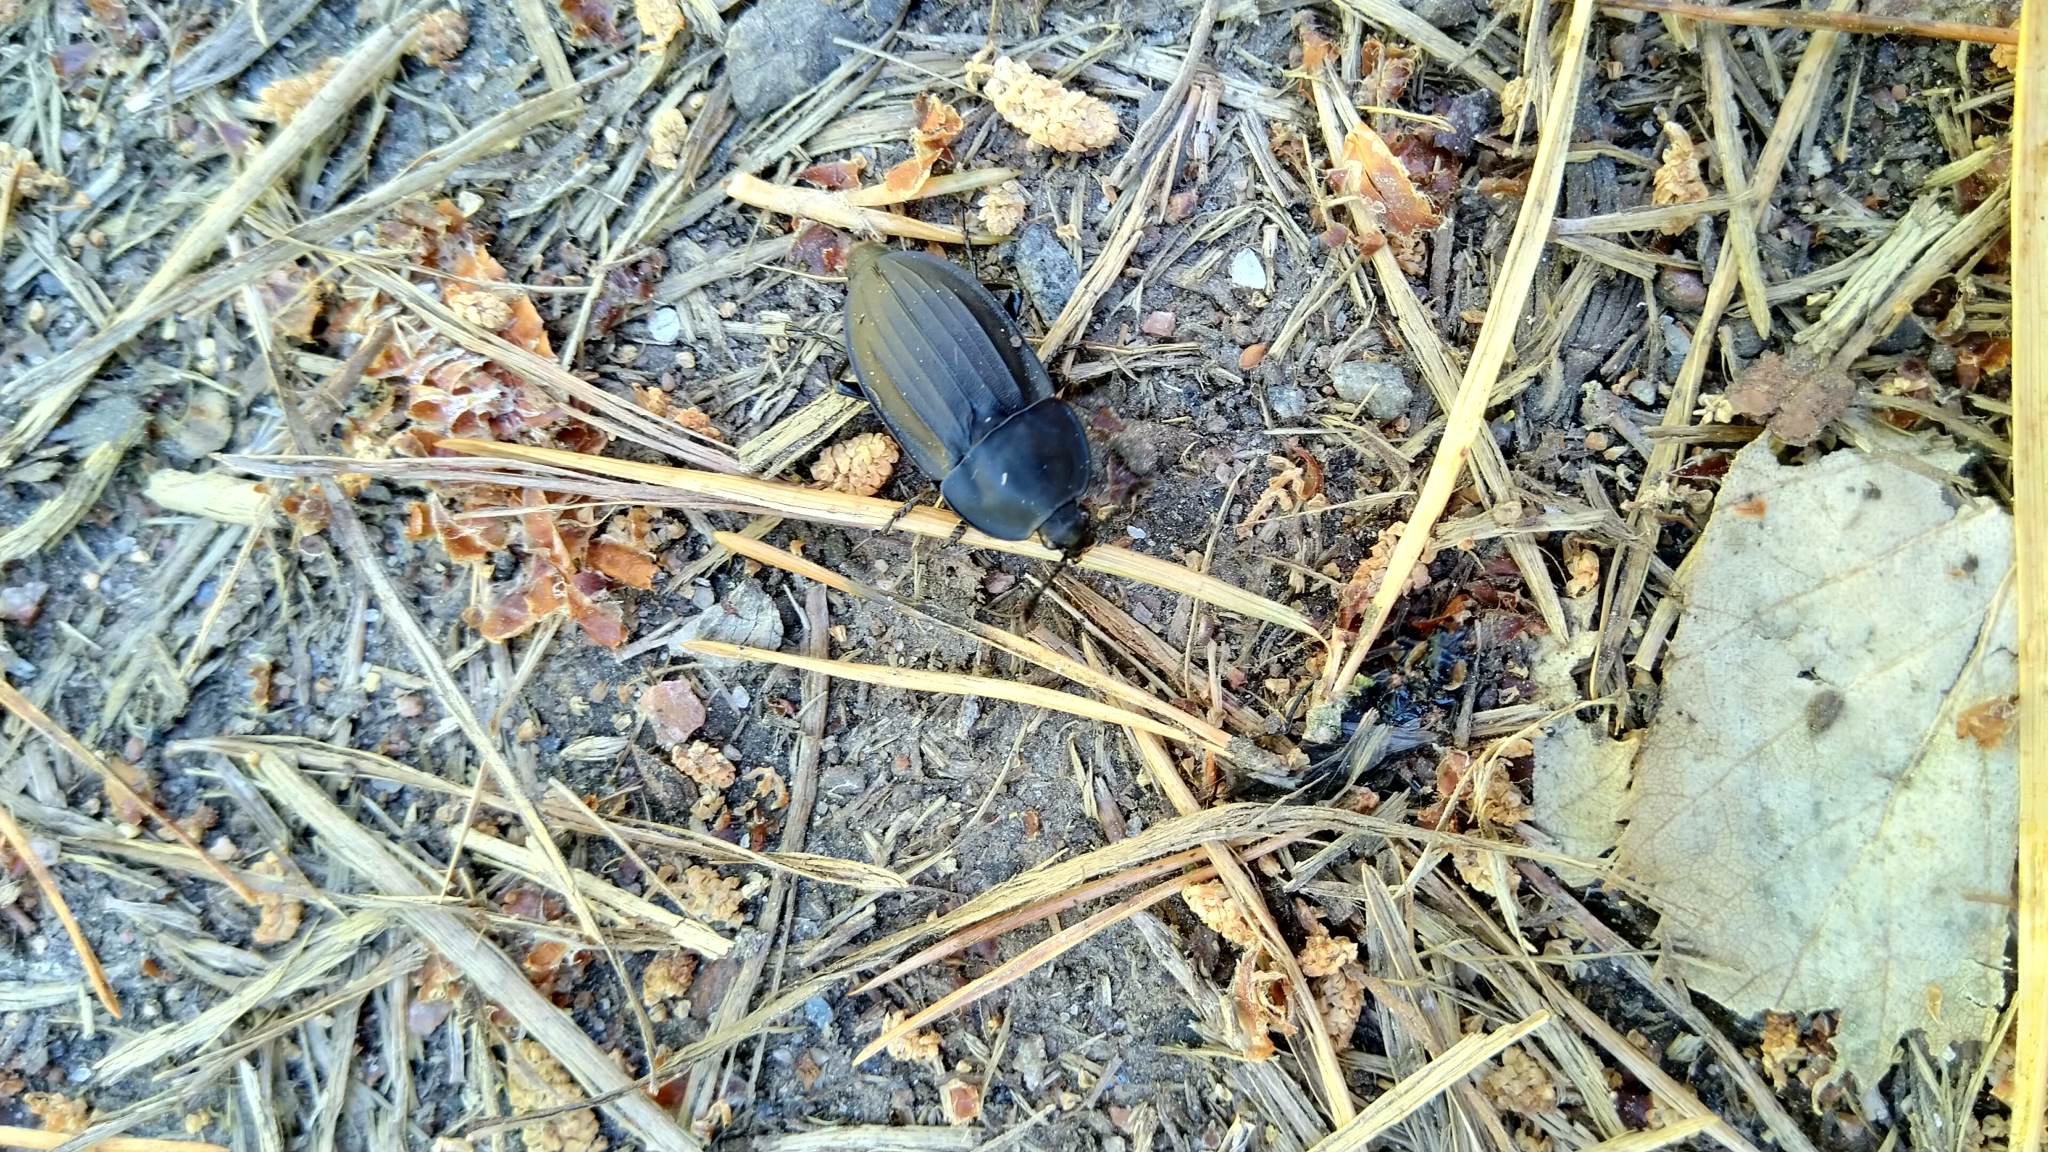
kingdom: Animalia
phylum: Arthropoda
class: Insecta
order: Coleoptera
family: Staphylinidae
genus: Silpha
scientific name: Silpha carinata
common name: Silphid beetle
